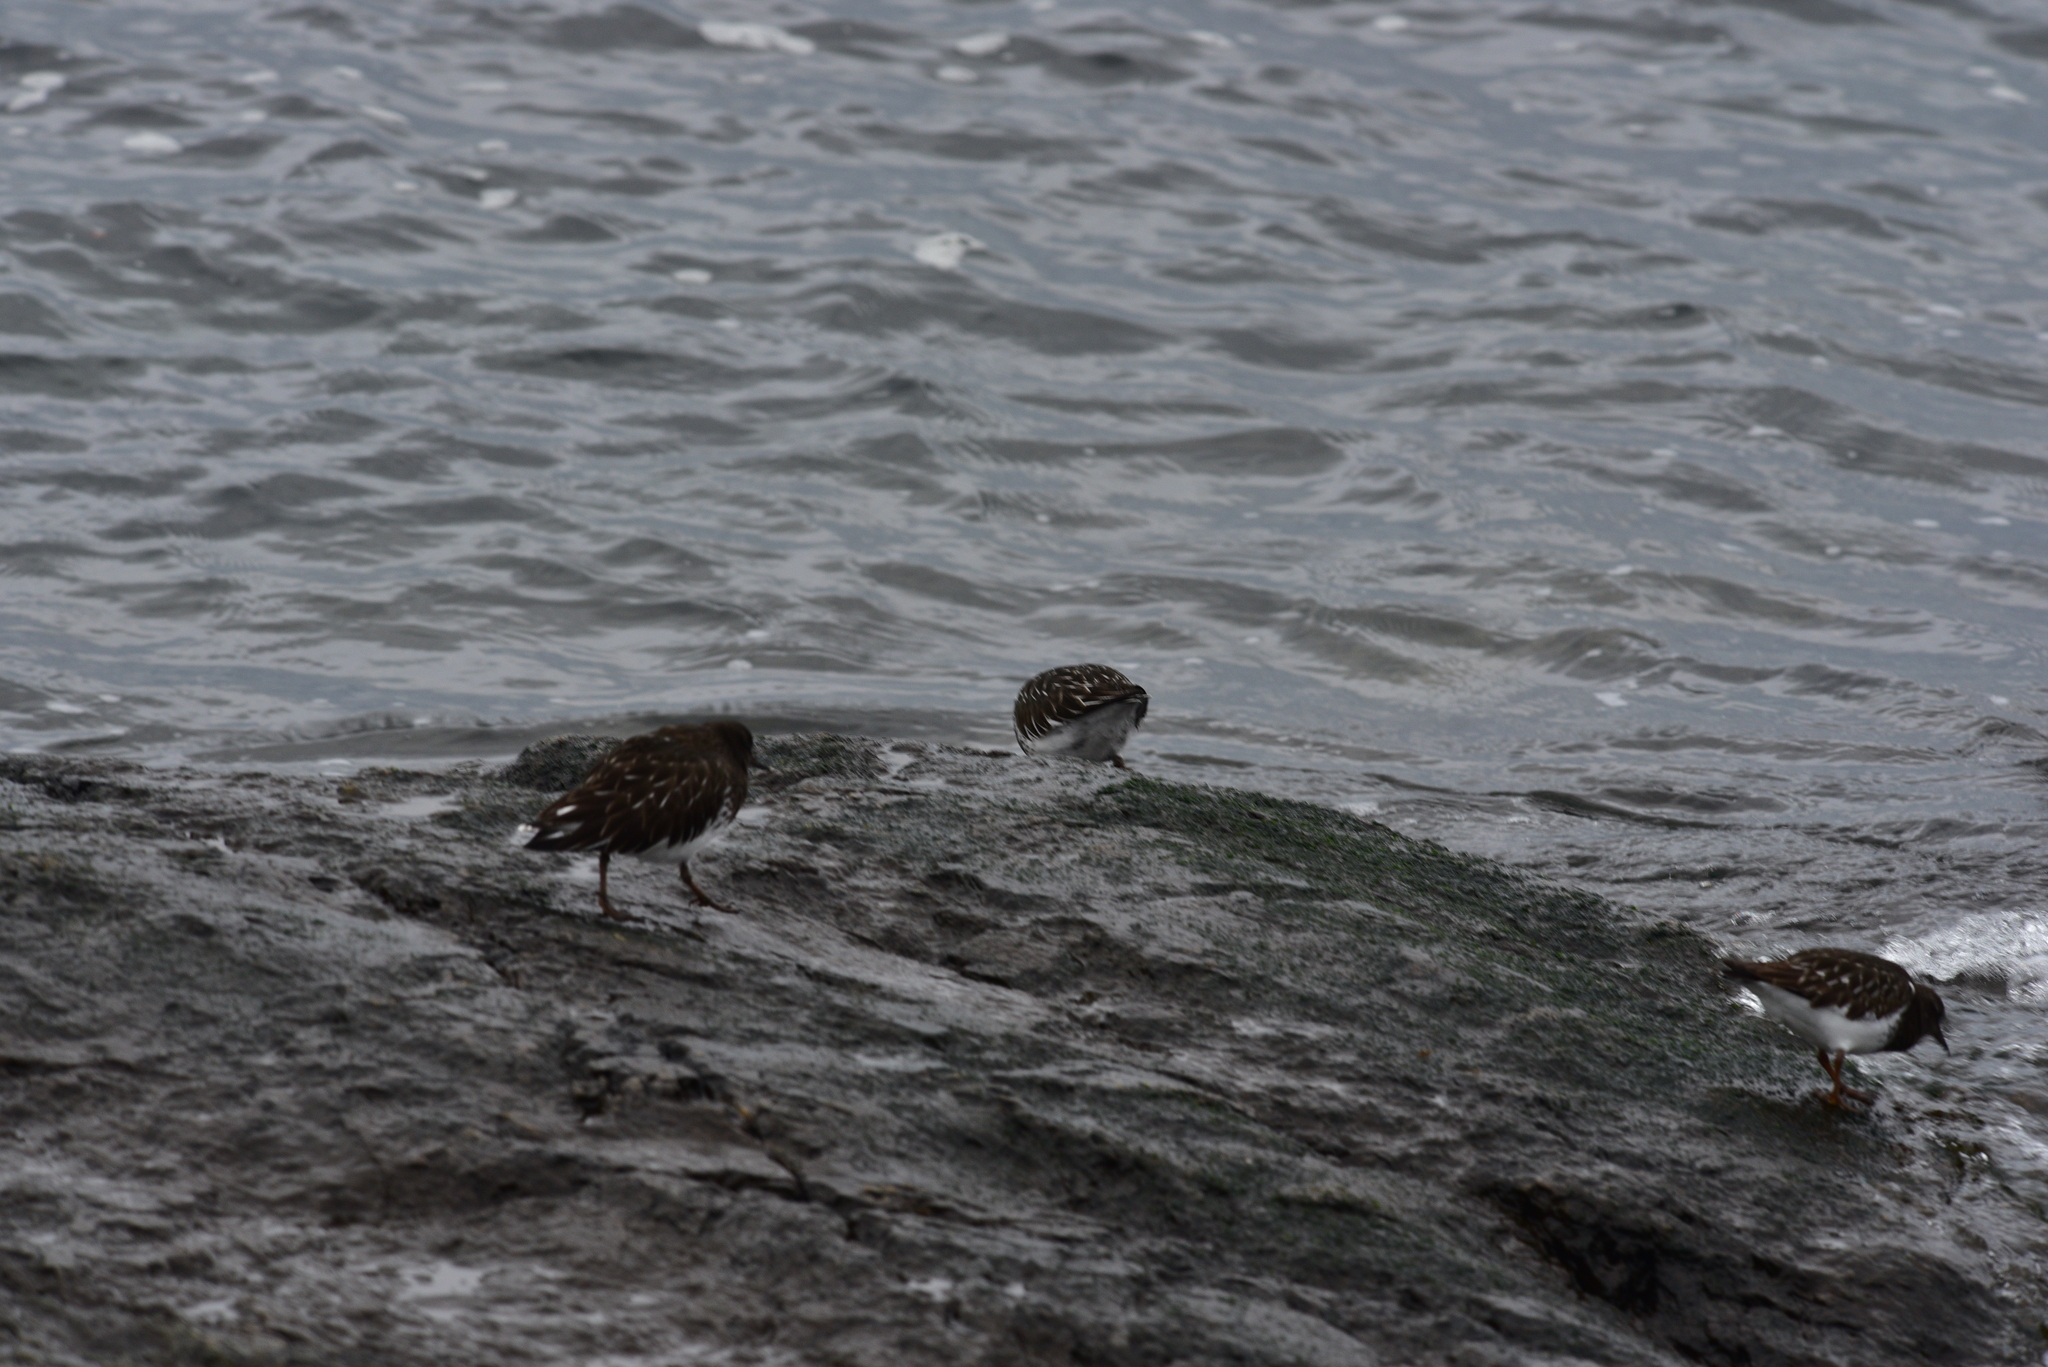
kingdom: Animalia
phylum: Chordata
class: Aves
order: Charadriiformes
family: Scolopacidae
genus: Arenaria
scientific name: Arenaria melanocephala
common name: Black turnstone
